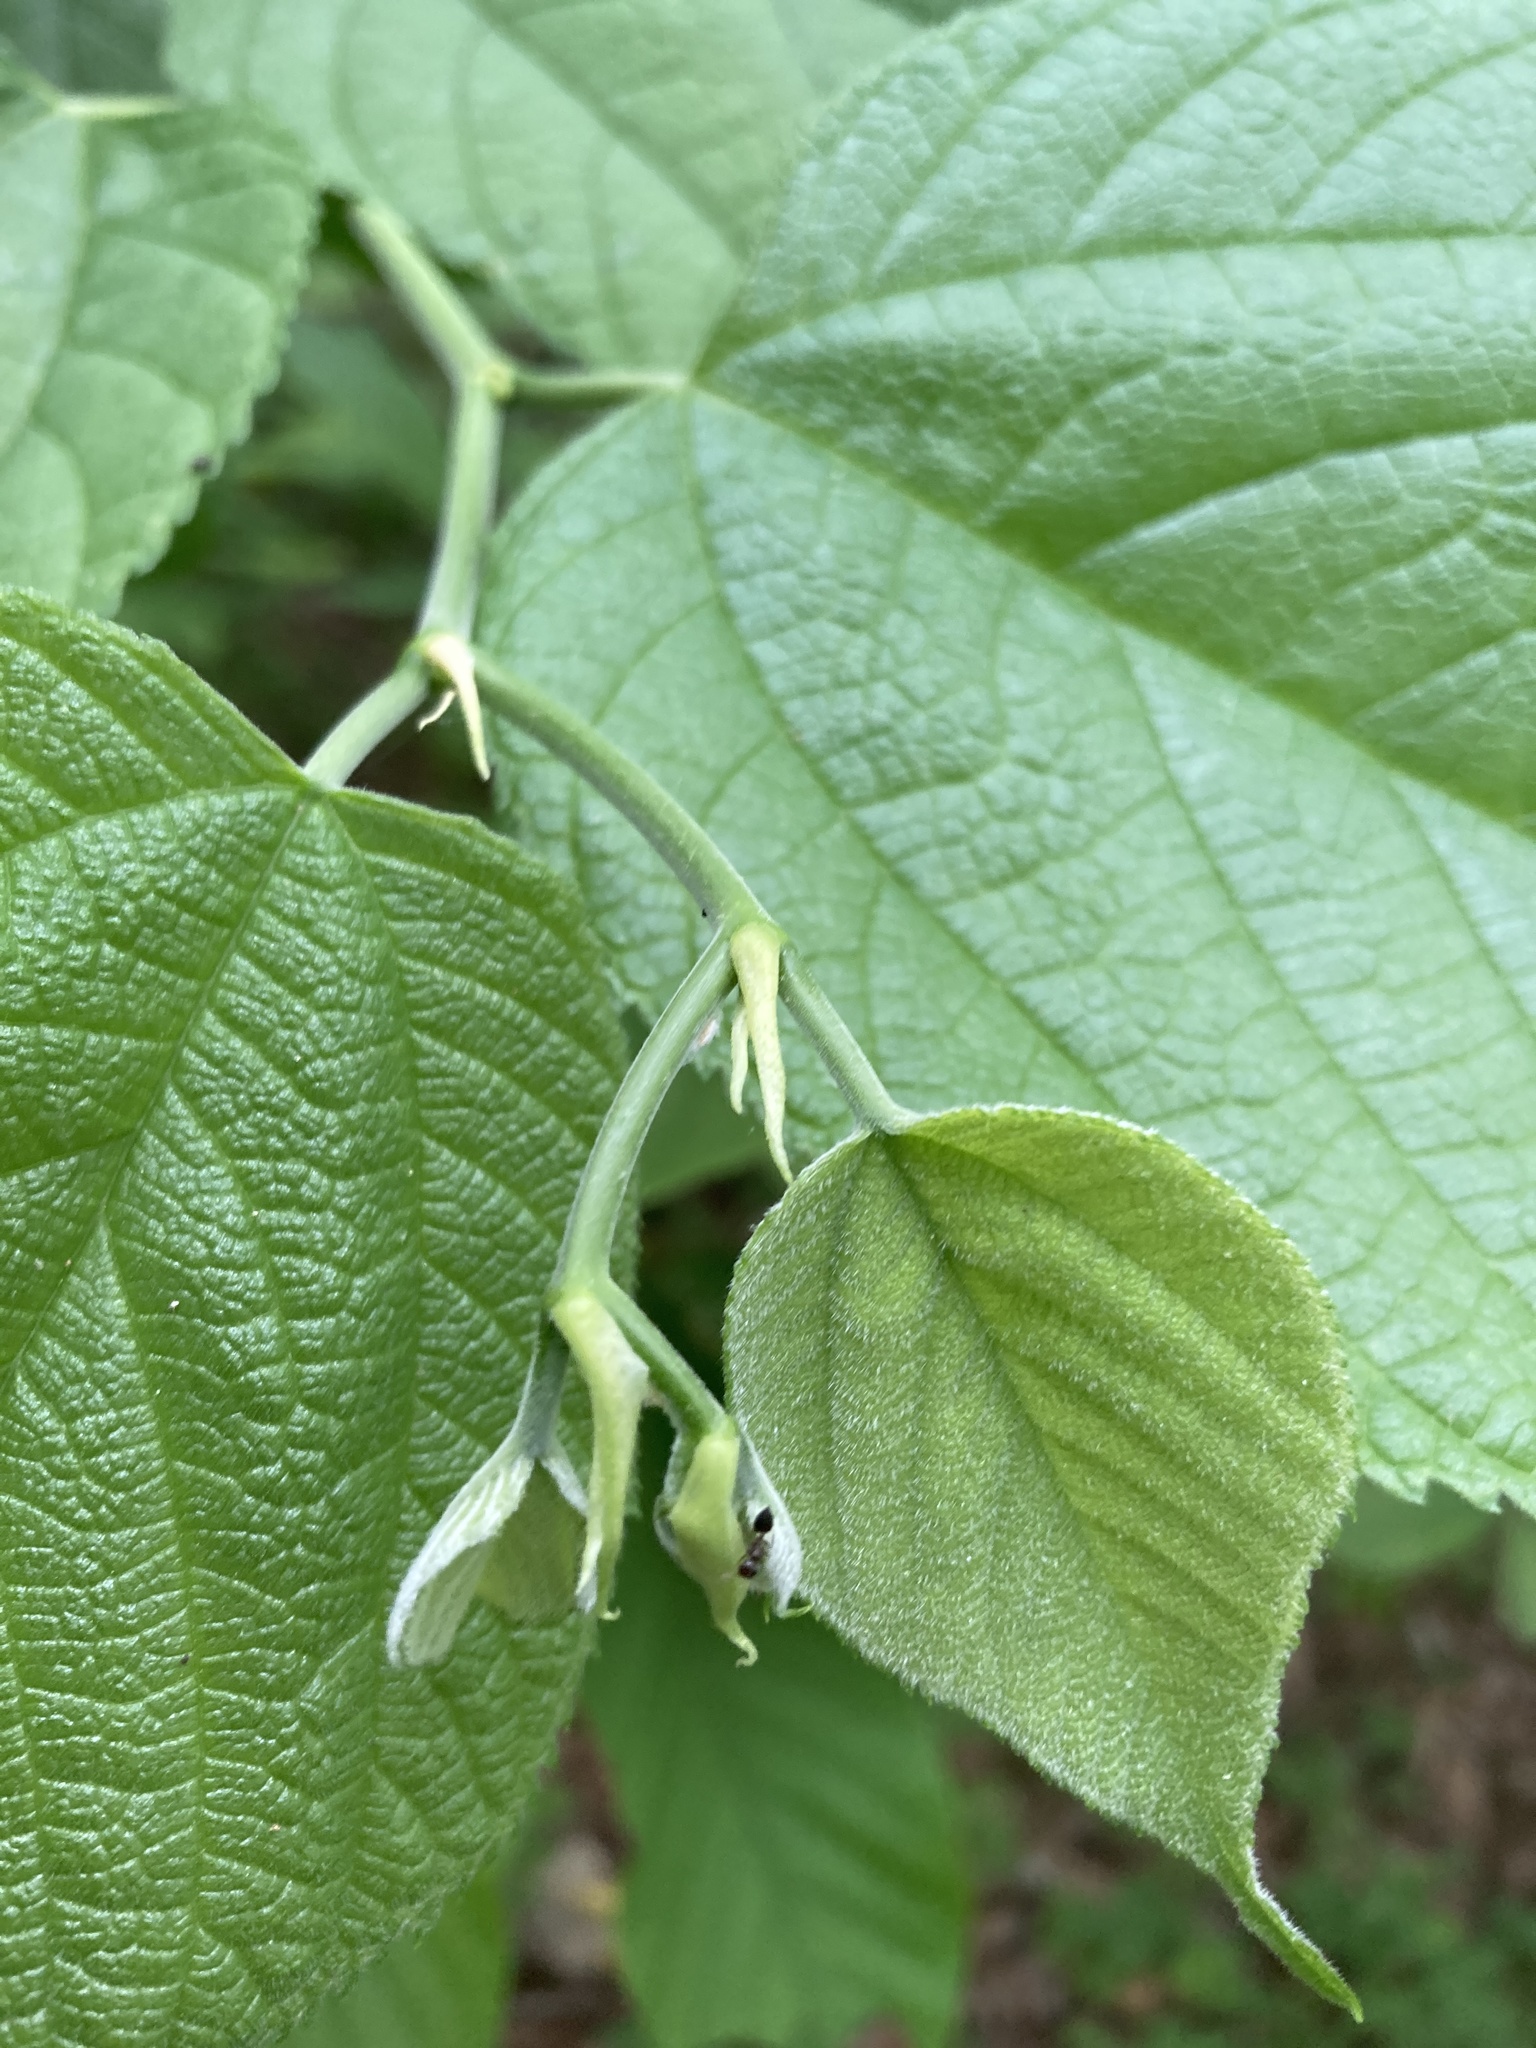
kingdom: Plantae
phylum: Tracheophyta
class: Magnoliopsida
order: Rosales
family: Moraceae
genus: Morus
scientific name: Morus rubra
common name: Red mulberry
